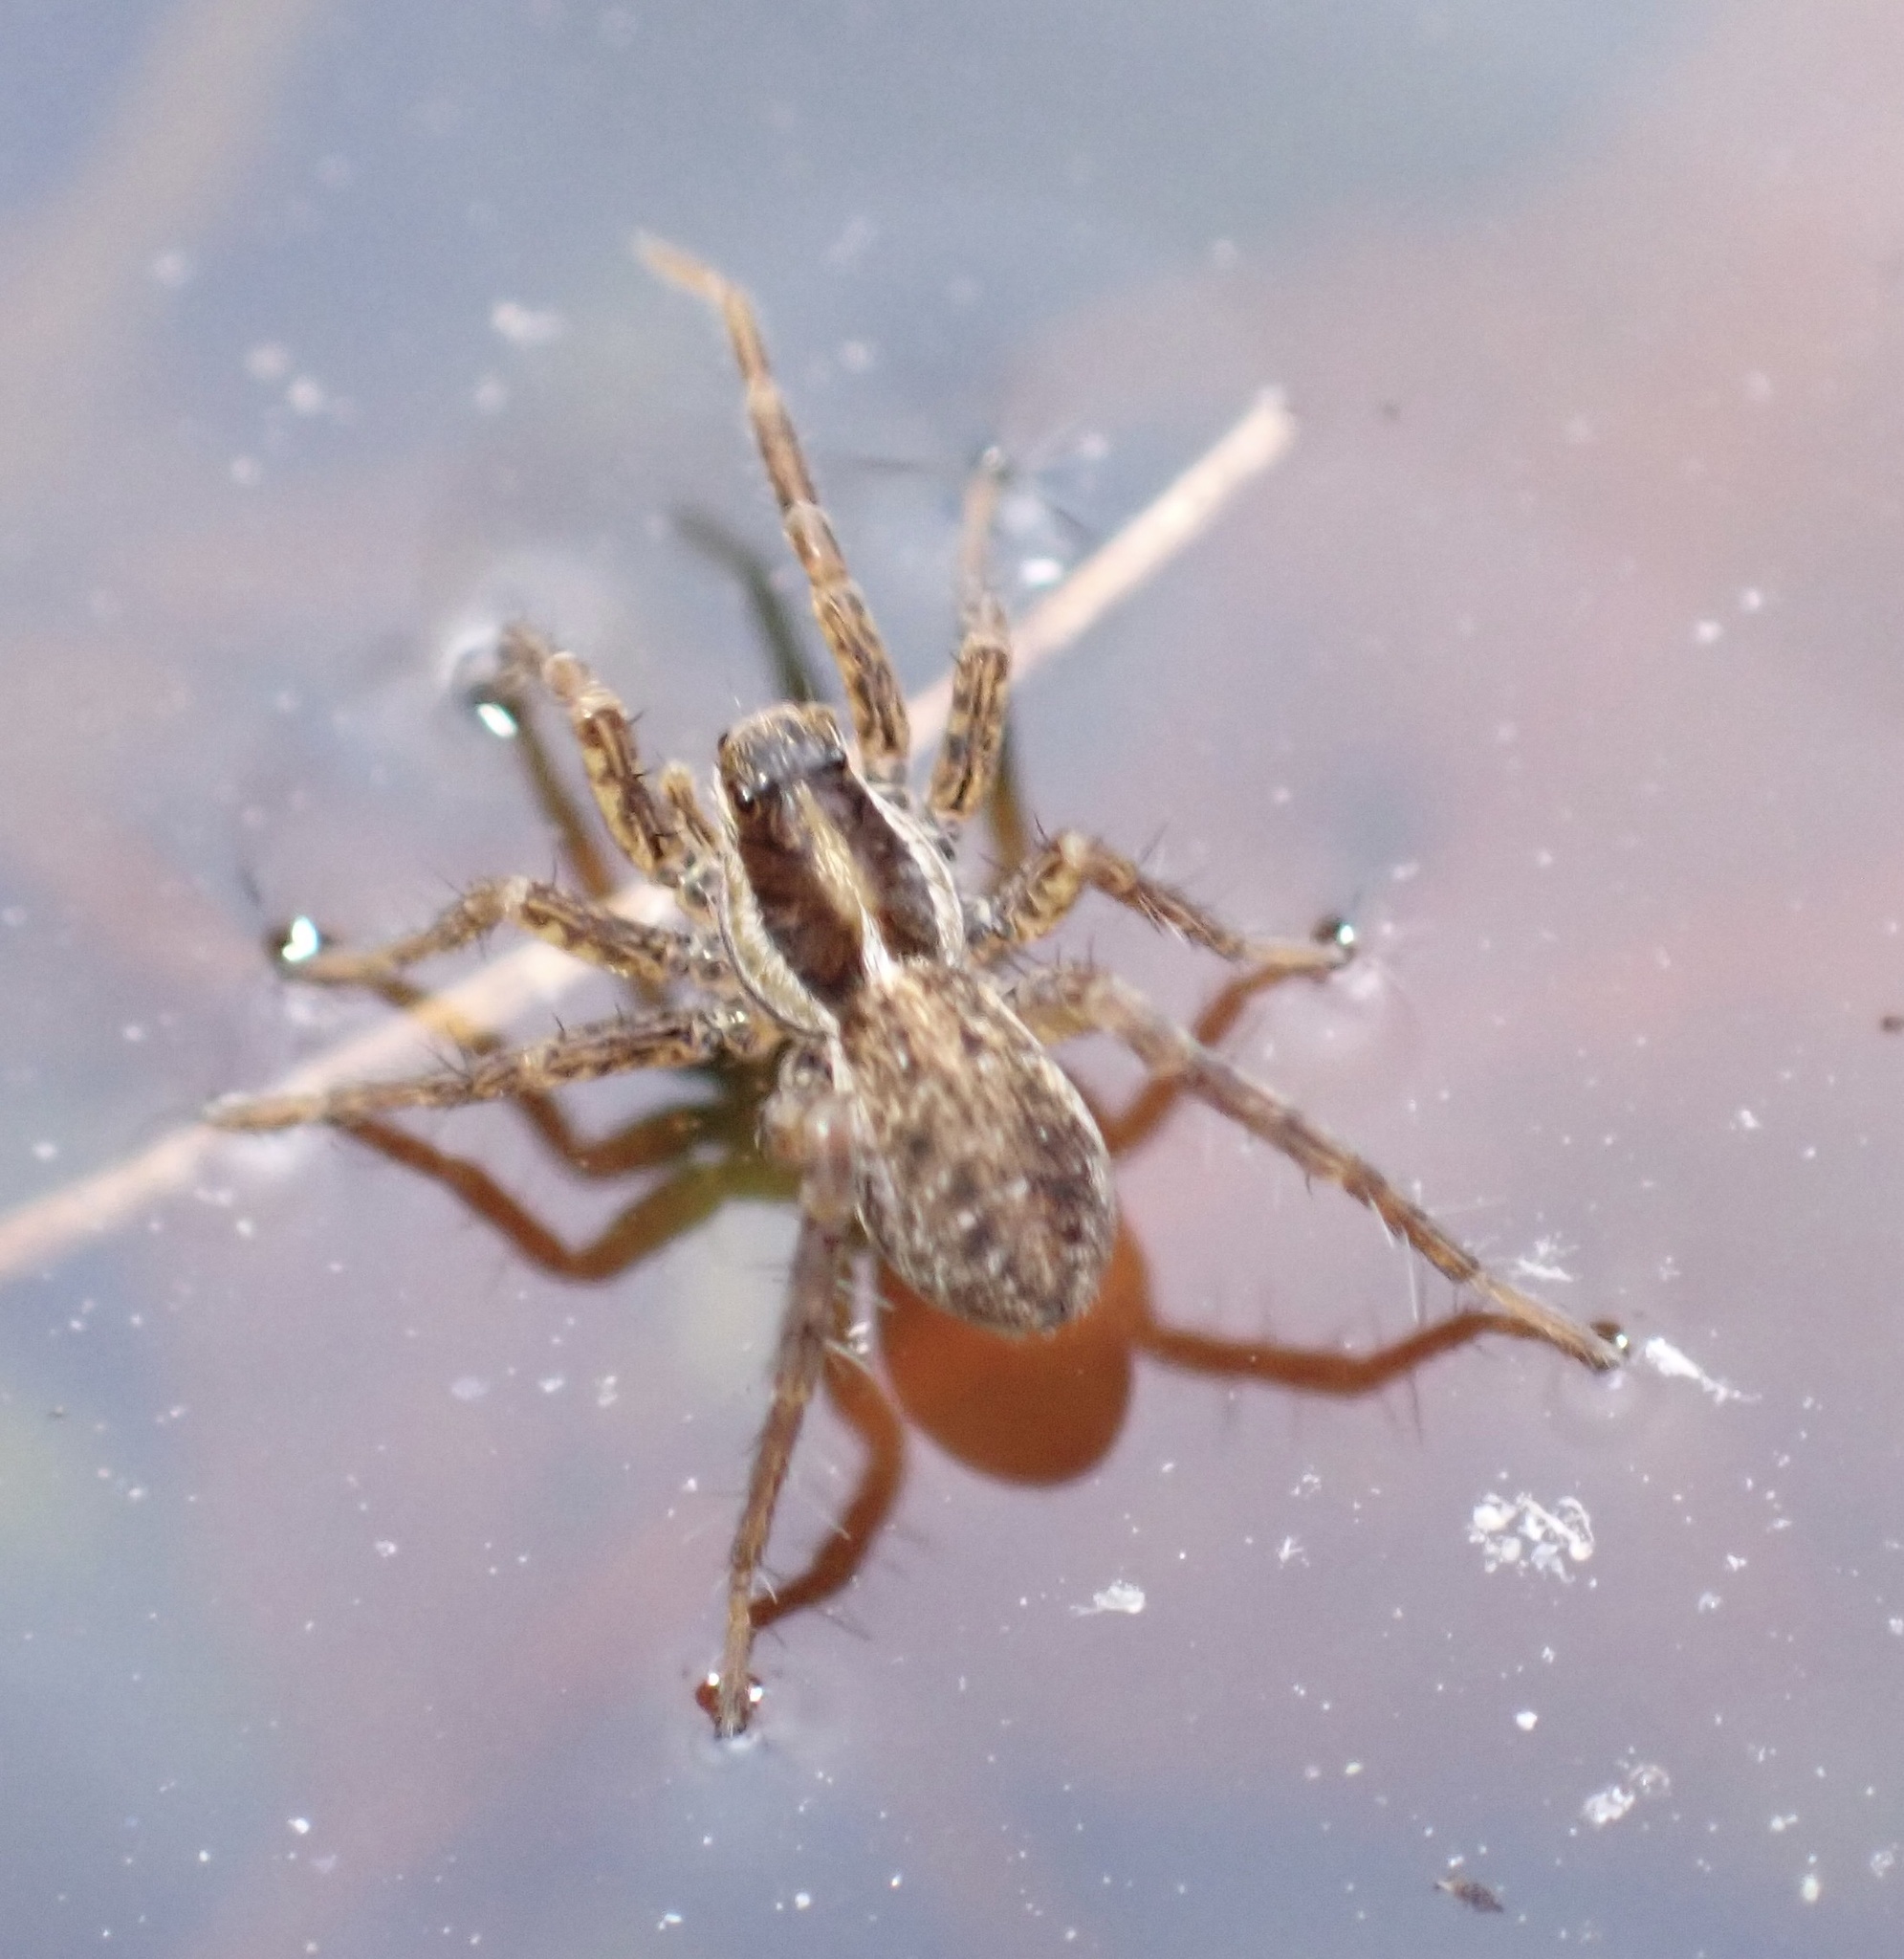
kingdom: Animalia
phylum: Arthropoda
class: Arachnida
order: Araneae
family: Lycosidae
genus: Pardosa
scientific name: Pardosa palustris
